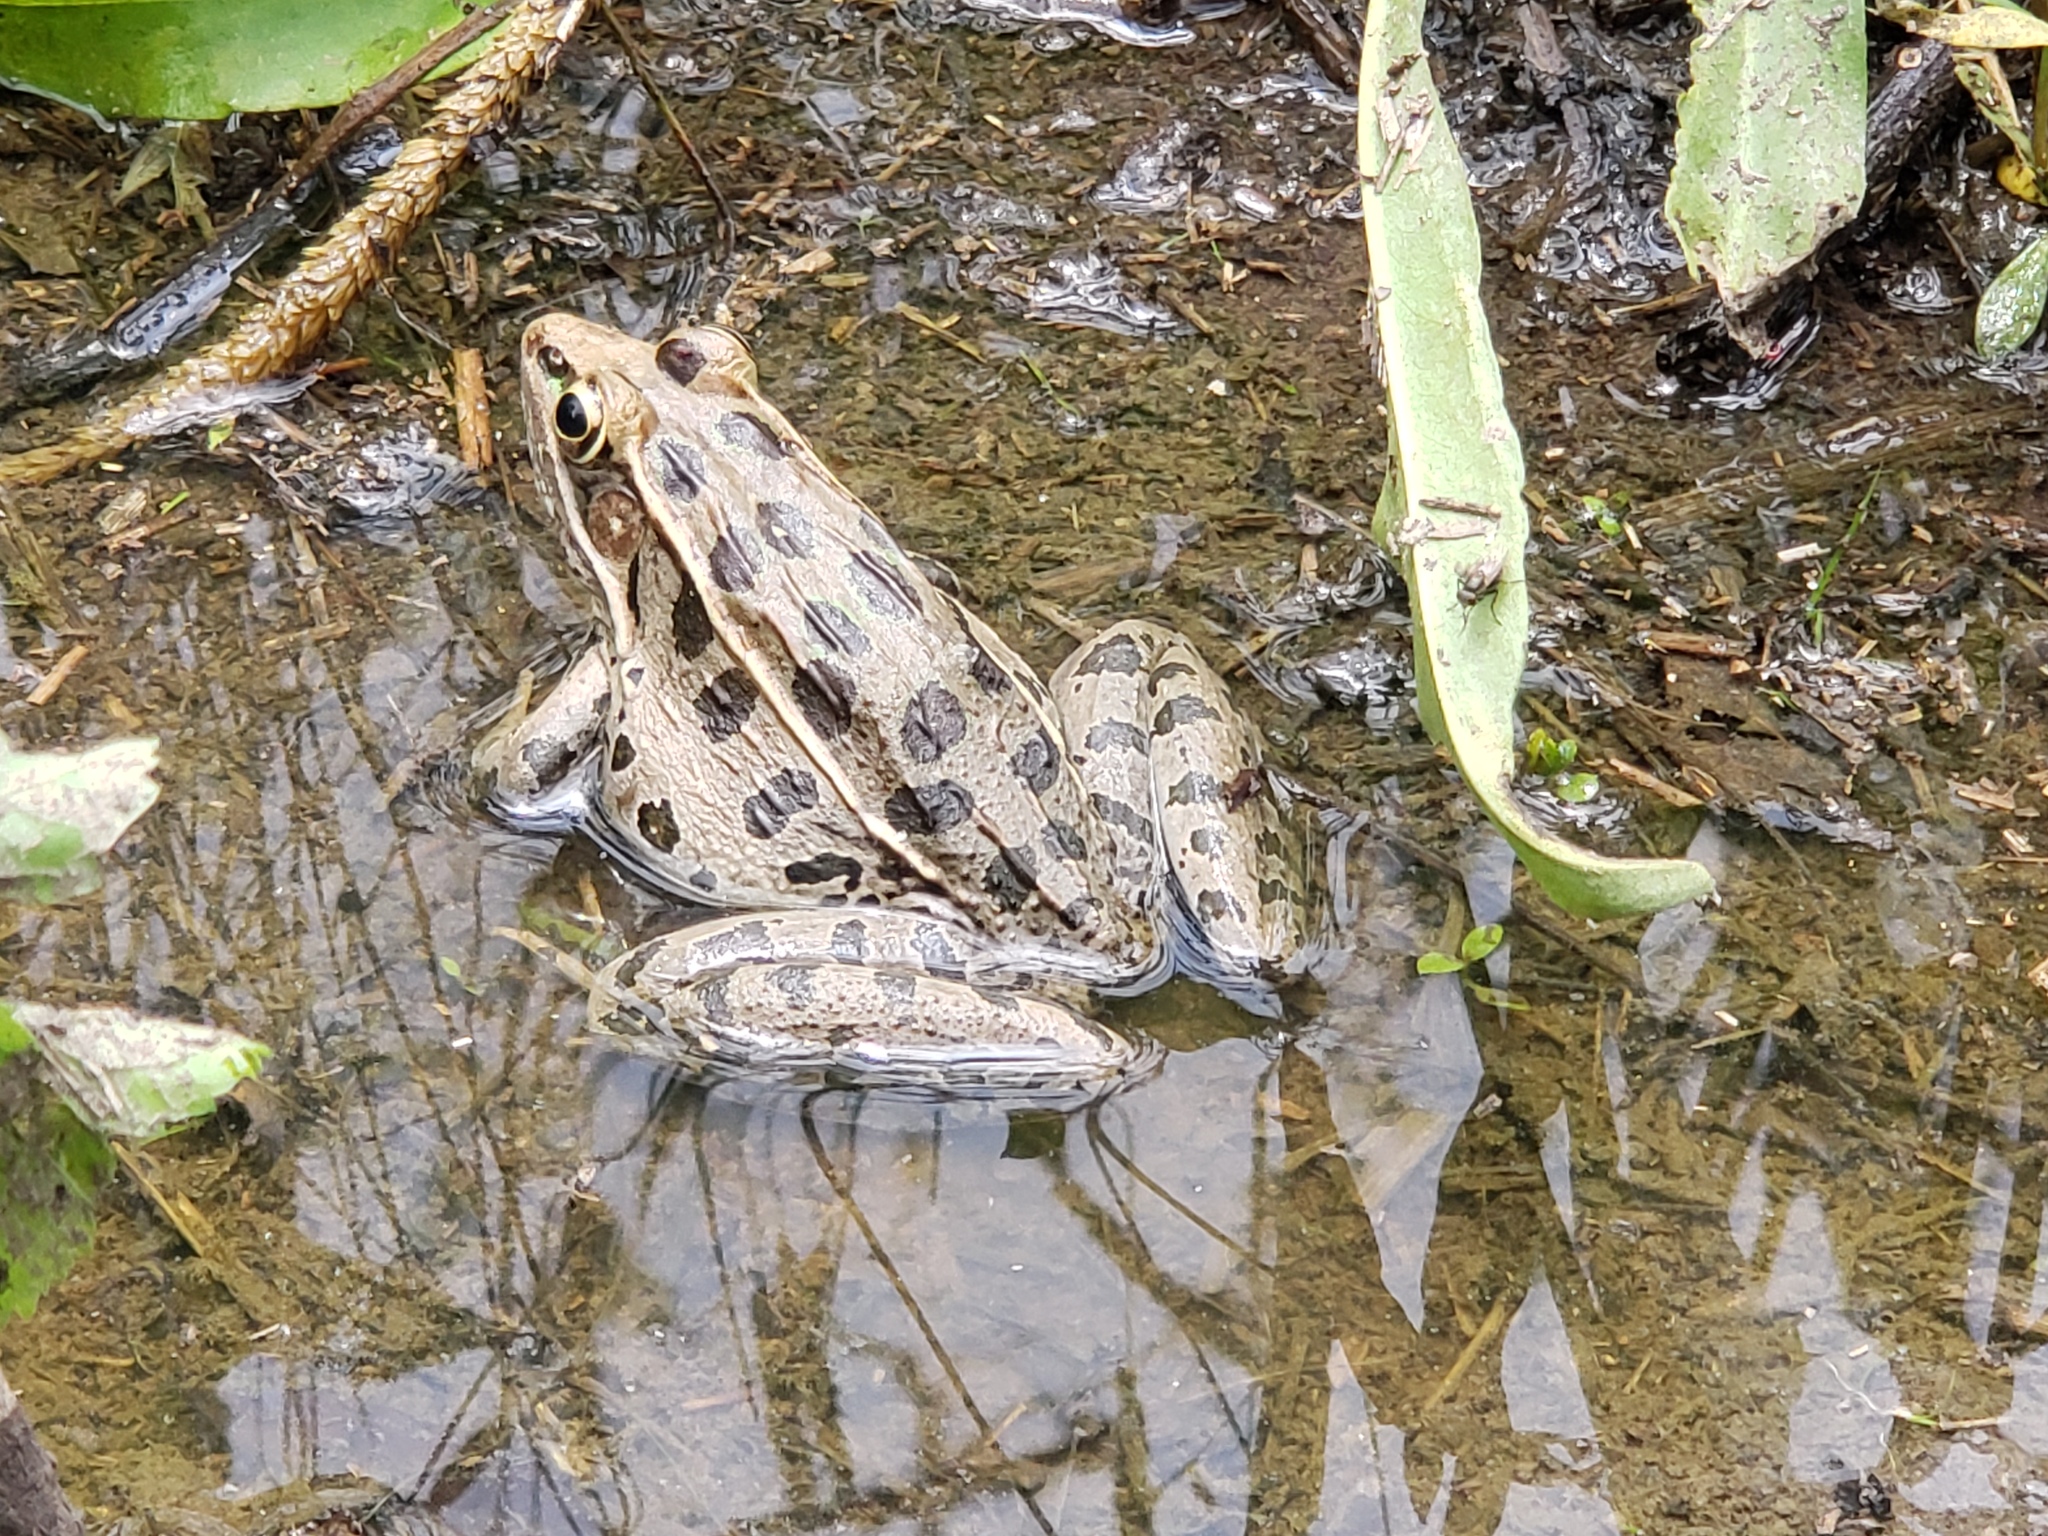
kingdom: Animalia
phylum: Chordata
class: Amphibia
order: Anura
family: Ranidae
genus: Lithobates
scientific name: Lithobates sphenocephalus
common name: Southern leopard frog
